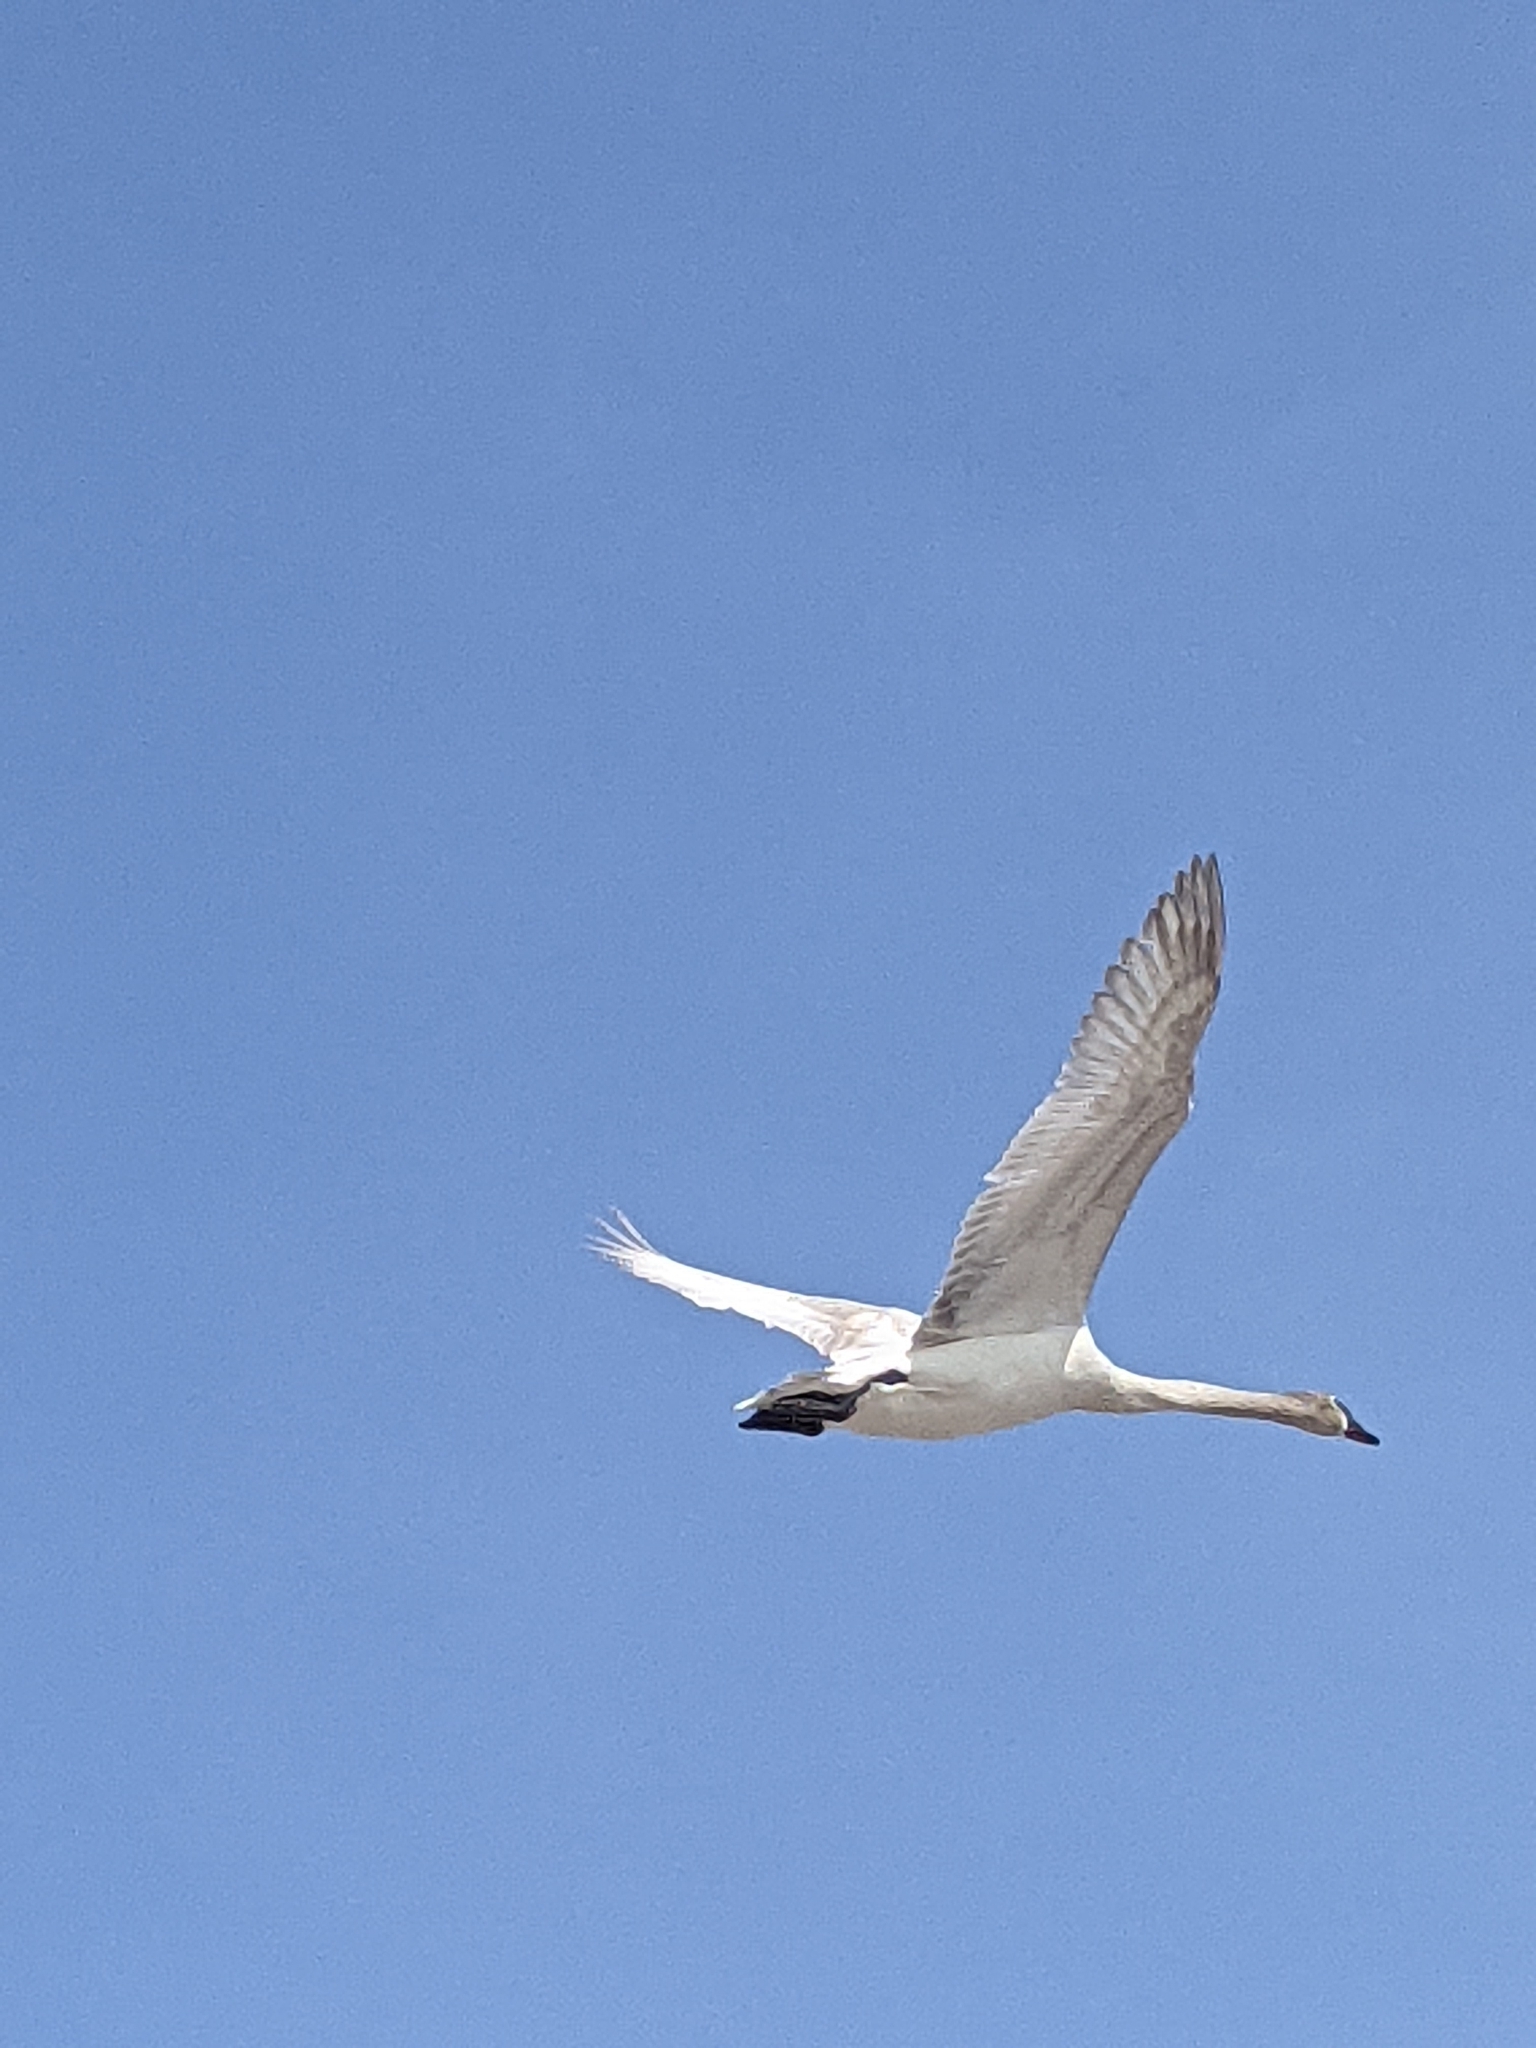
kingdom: Animalia
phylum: Chordata
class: Aves
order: Anseriformes
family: Anatidae
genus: Cygnus
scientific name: Cygnus buccinator
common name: Trumpeter swan
